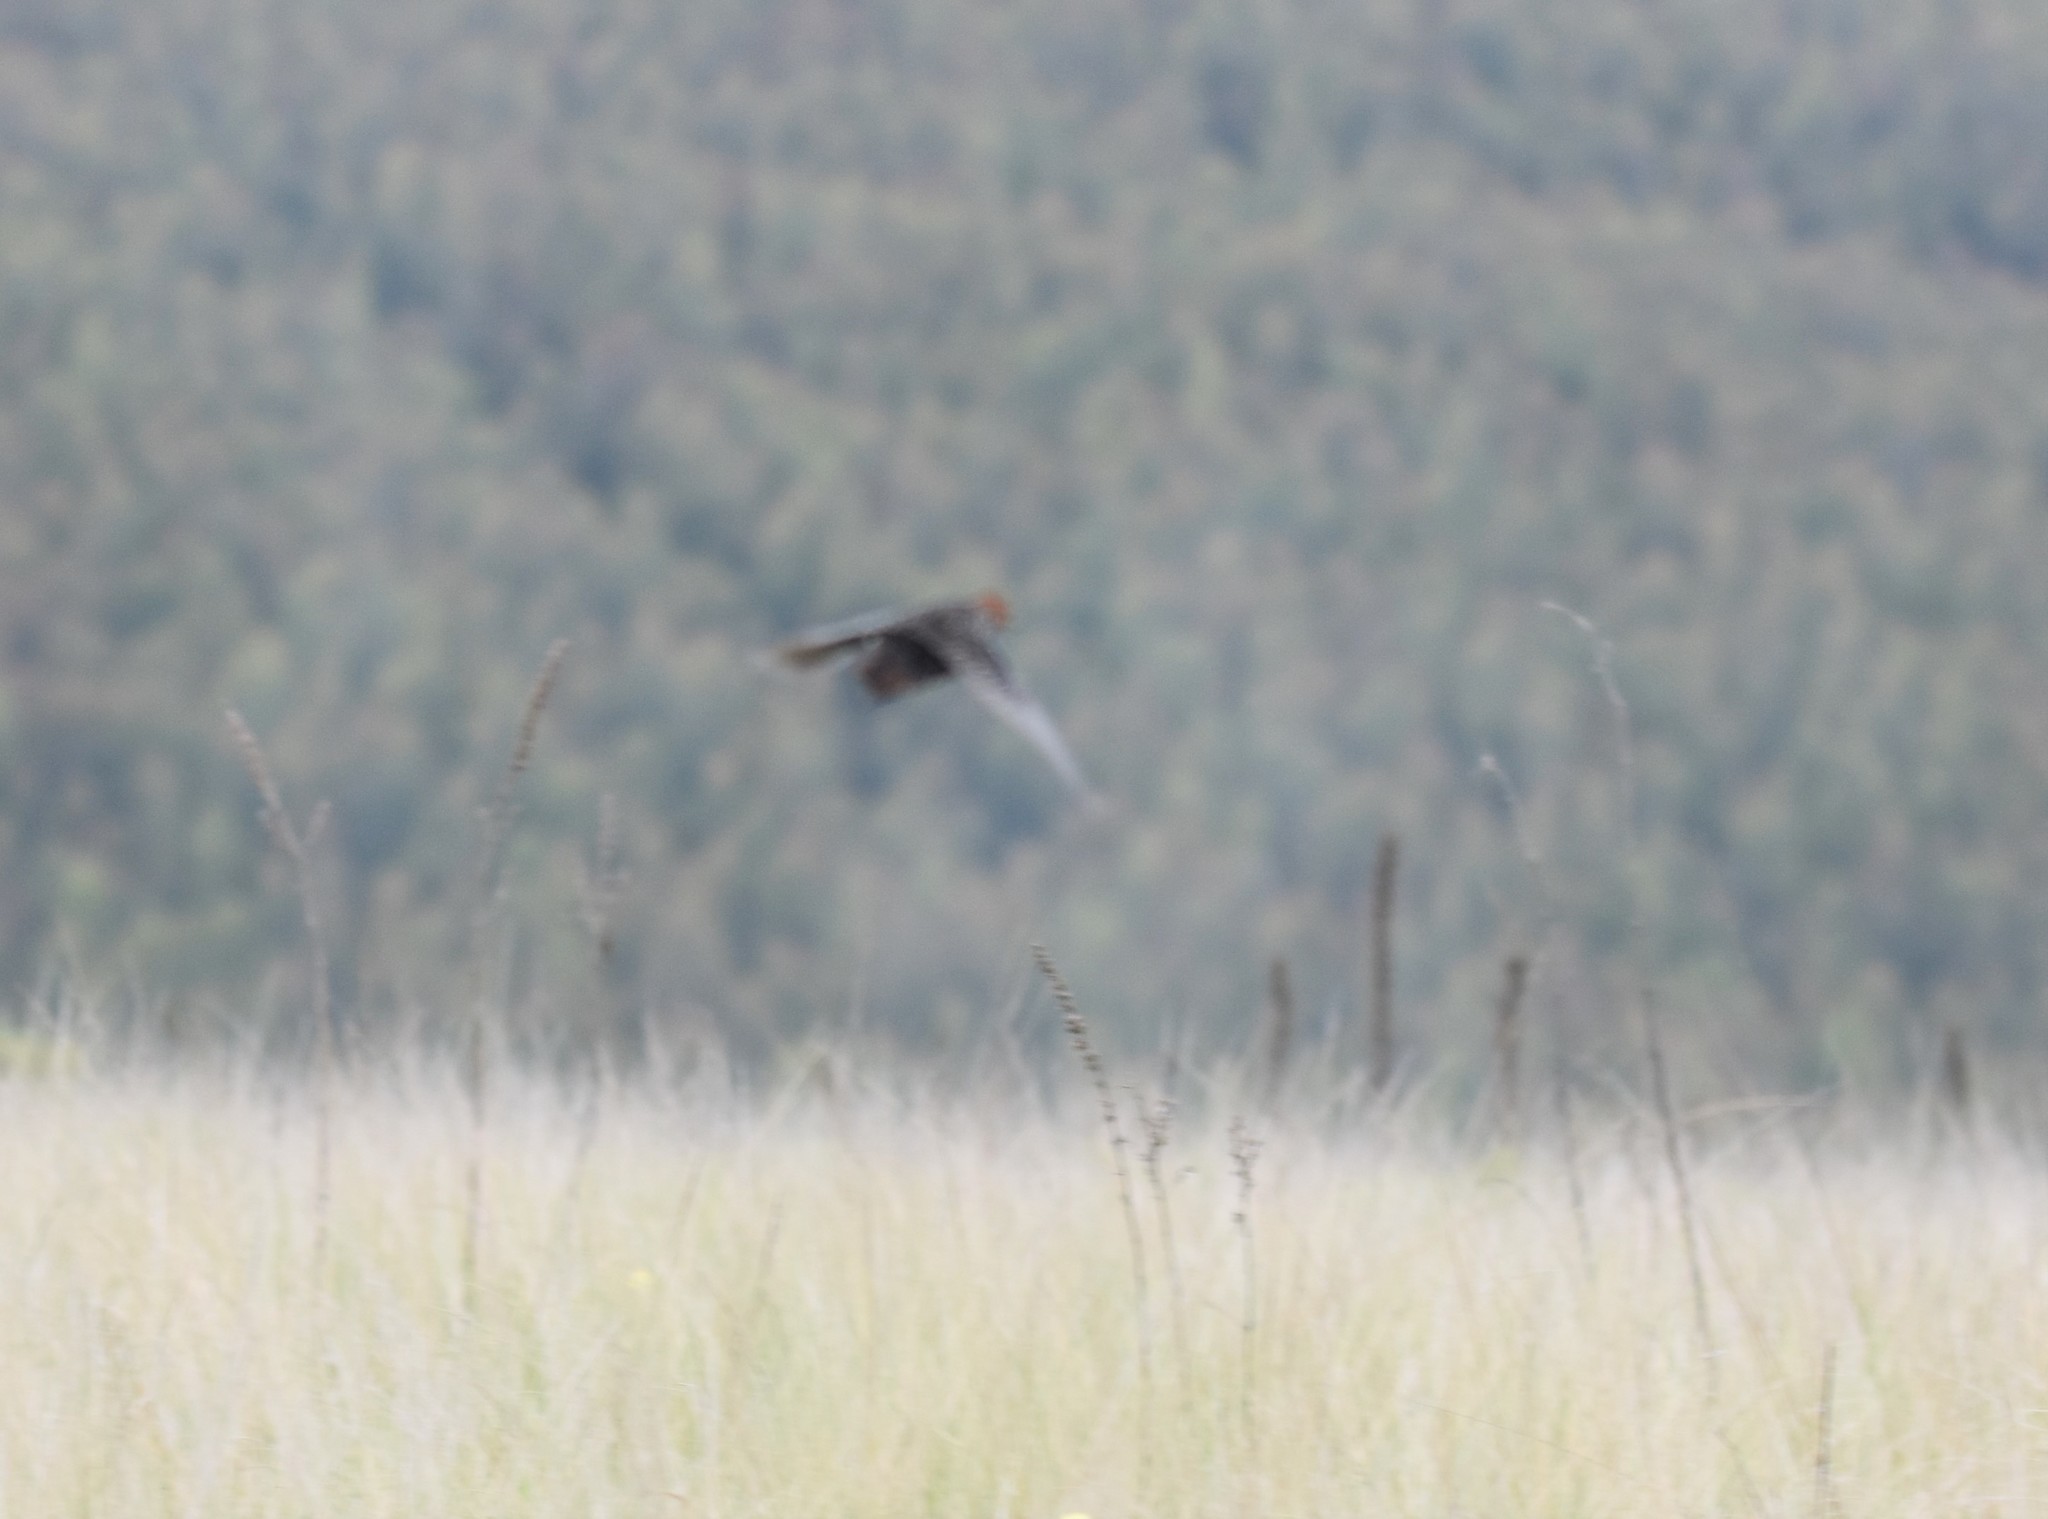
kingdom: Animalia
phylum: Chordata
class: Aves
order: Gruiformes
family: Rallidae
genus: Sarothrura
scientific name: Sarothrura affinis
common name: Striped flufftail
